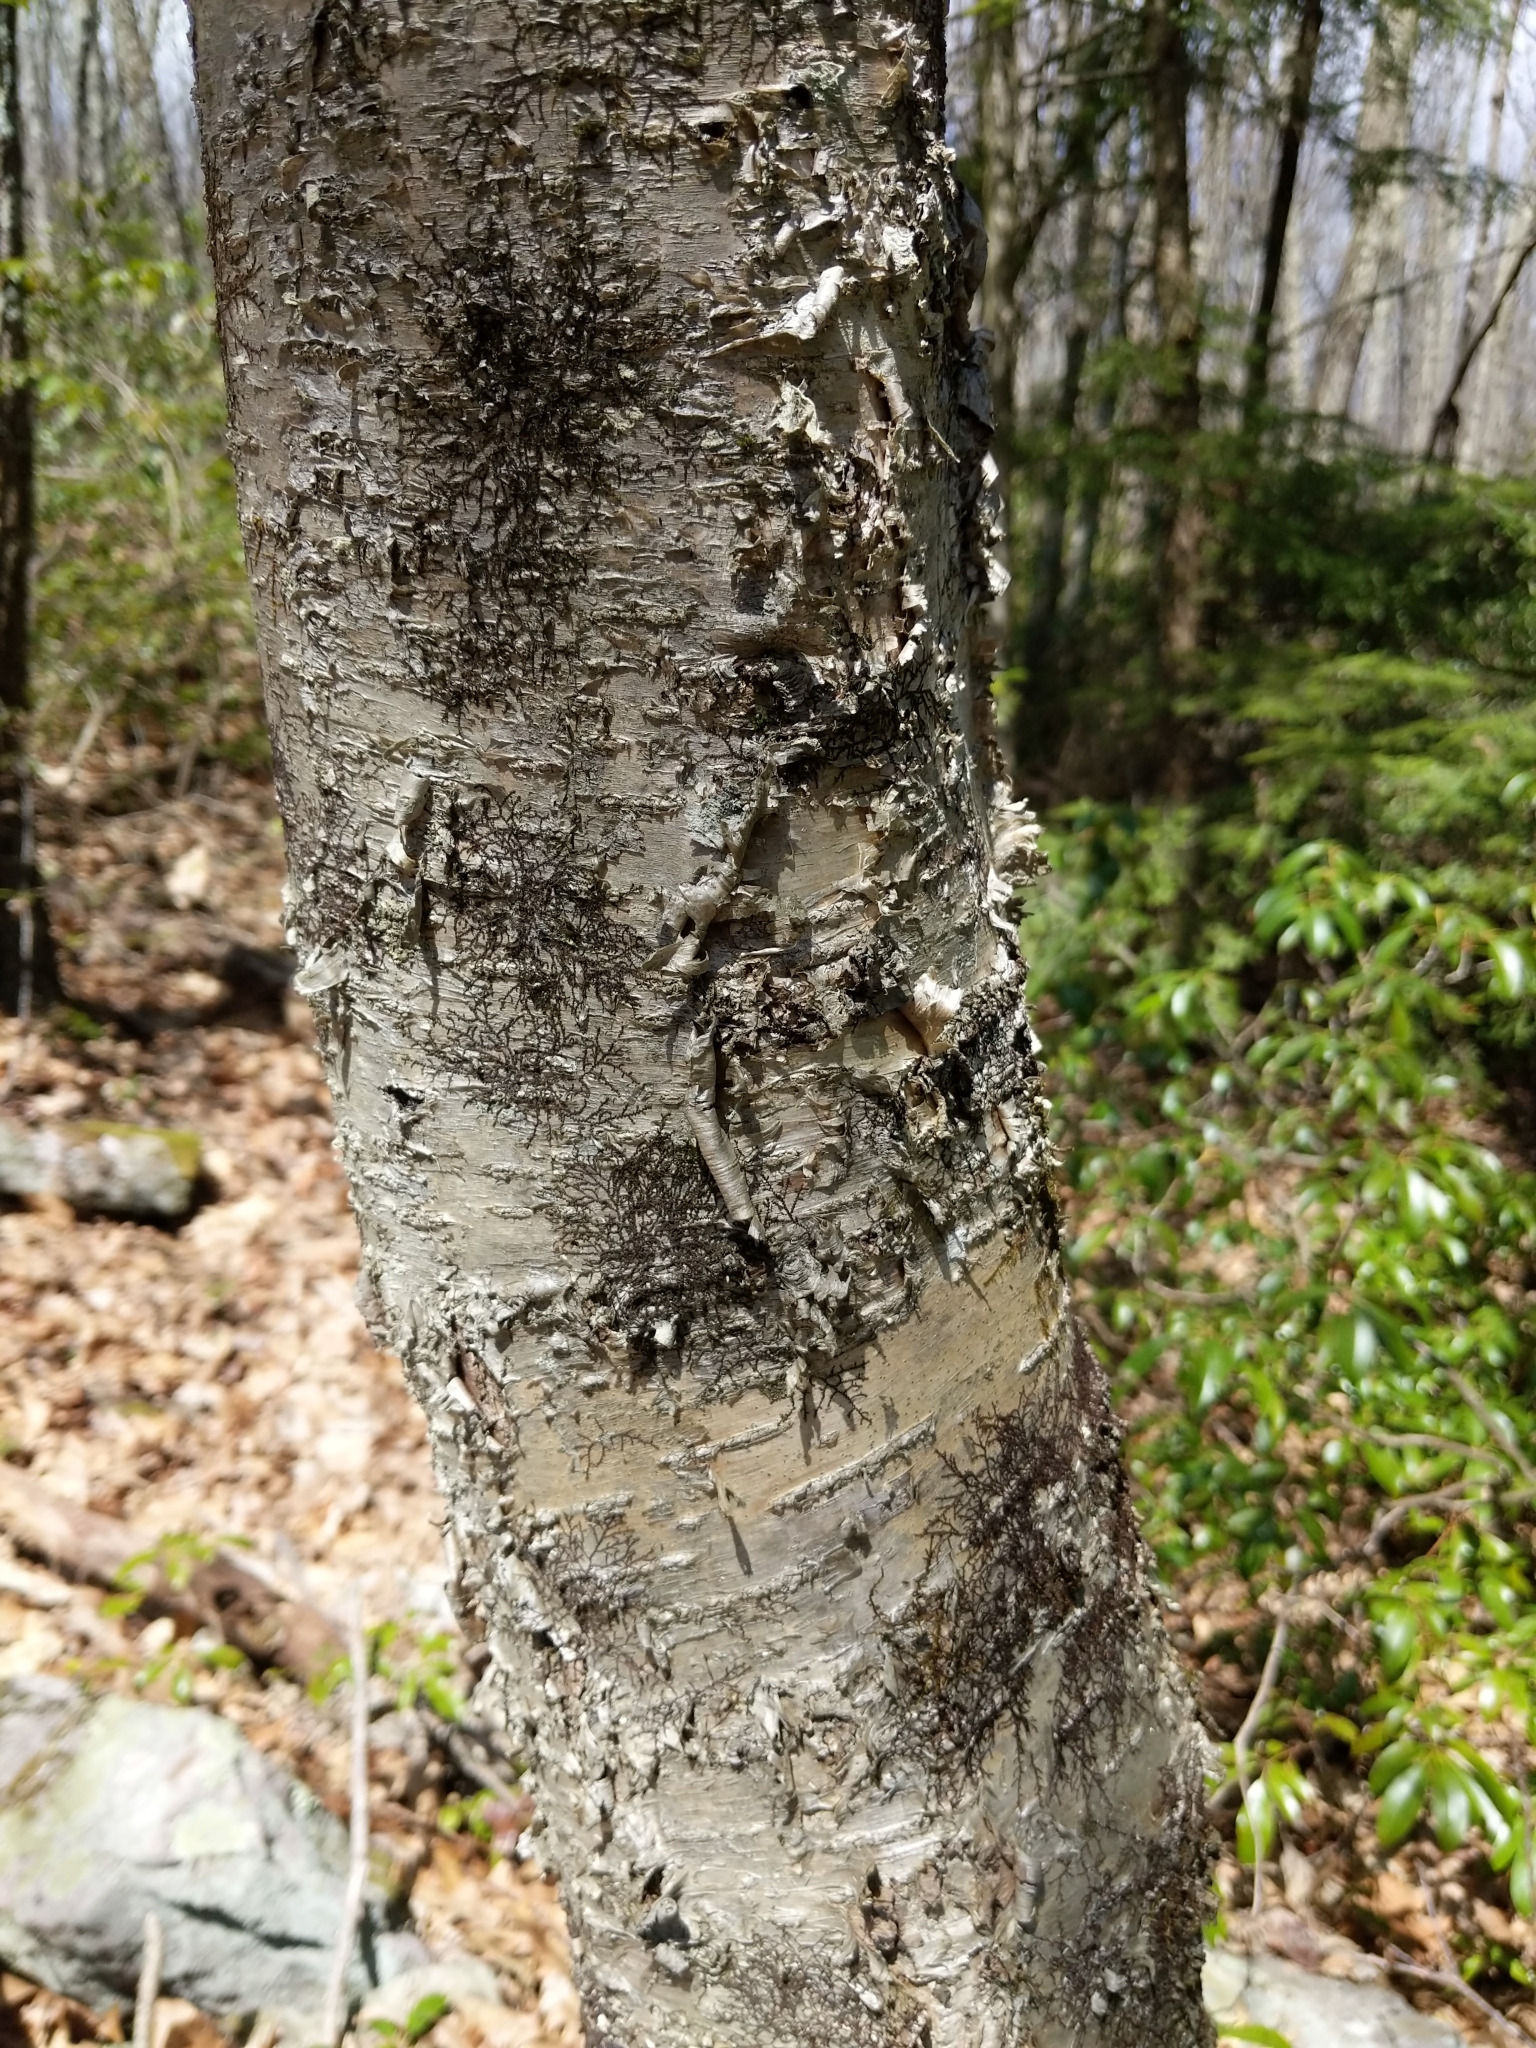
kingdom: Plantae
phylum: Tracheophyta
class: Magnoliopsida
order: Fagales
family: Betulaceae
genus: Betula
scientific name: Betula alleghaniensis
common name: Yellow birch
